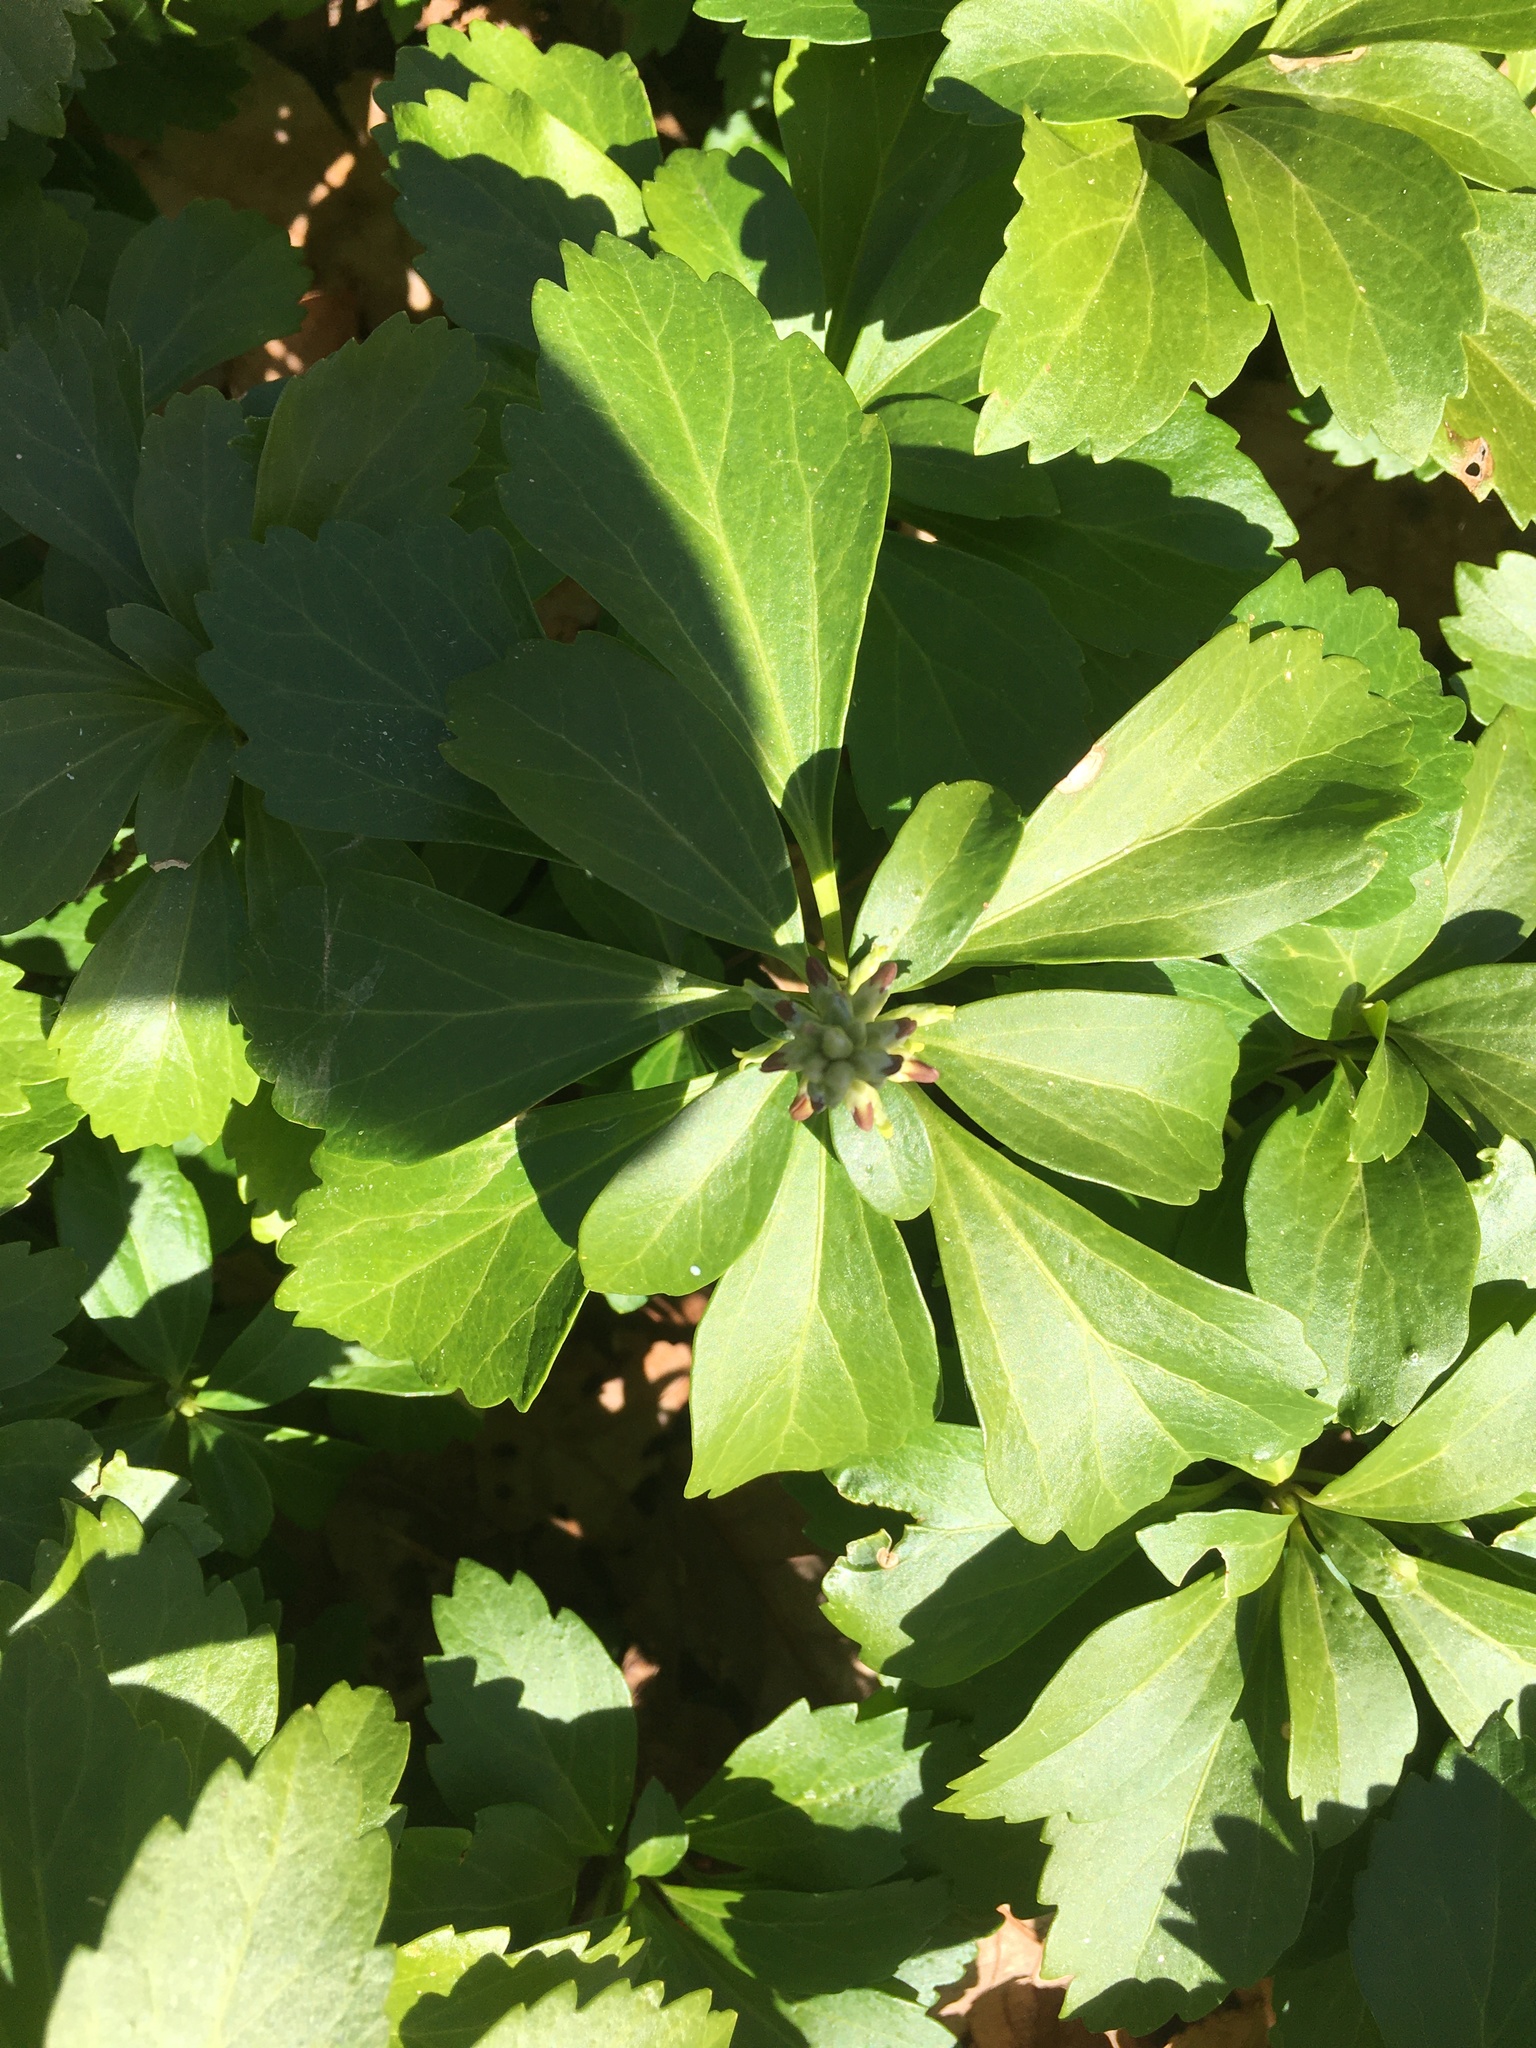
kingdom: Plantae
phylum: Tracheophyta
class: Magnoliopsida
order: Buxales
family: Buxaceae
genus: Pachysandra
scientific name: Pachysandra terminalis
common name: Japanese pachysandra
